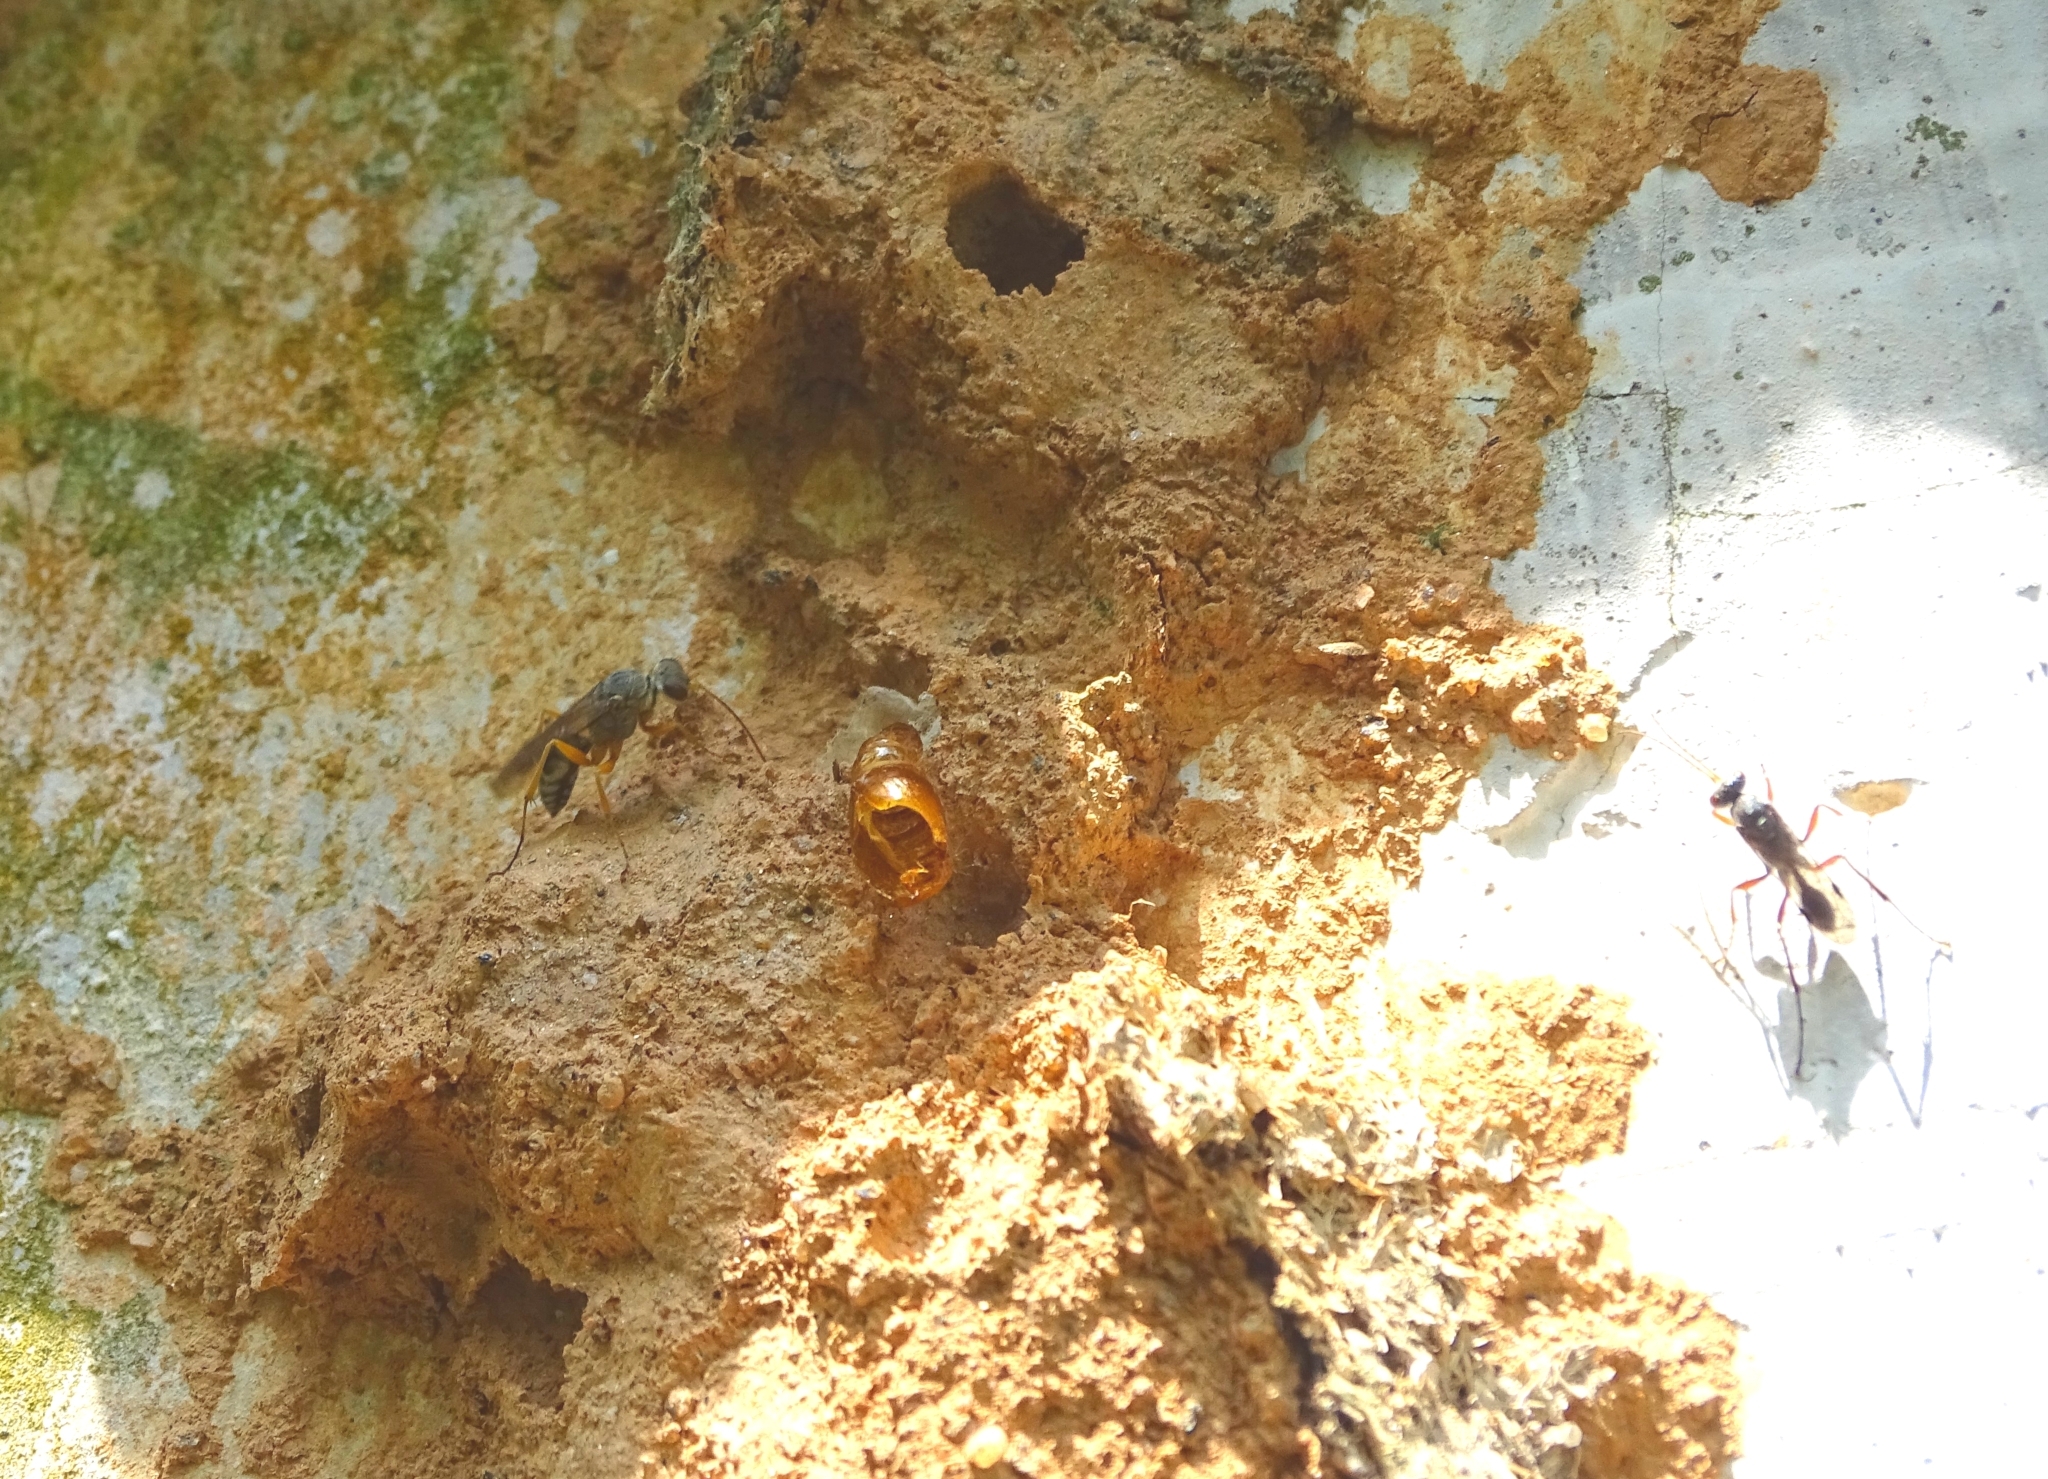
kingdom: Animalia
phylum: Arthropoda
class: Insecta
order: Hymenoptera
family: Pompilidae
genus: Machaerothrix
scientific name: Machaerothrix salticidus
